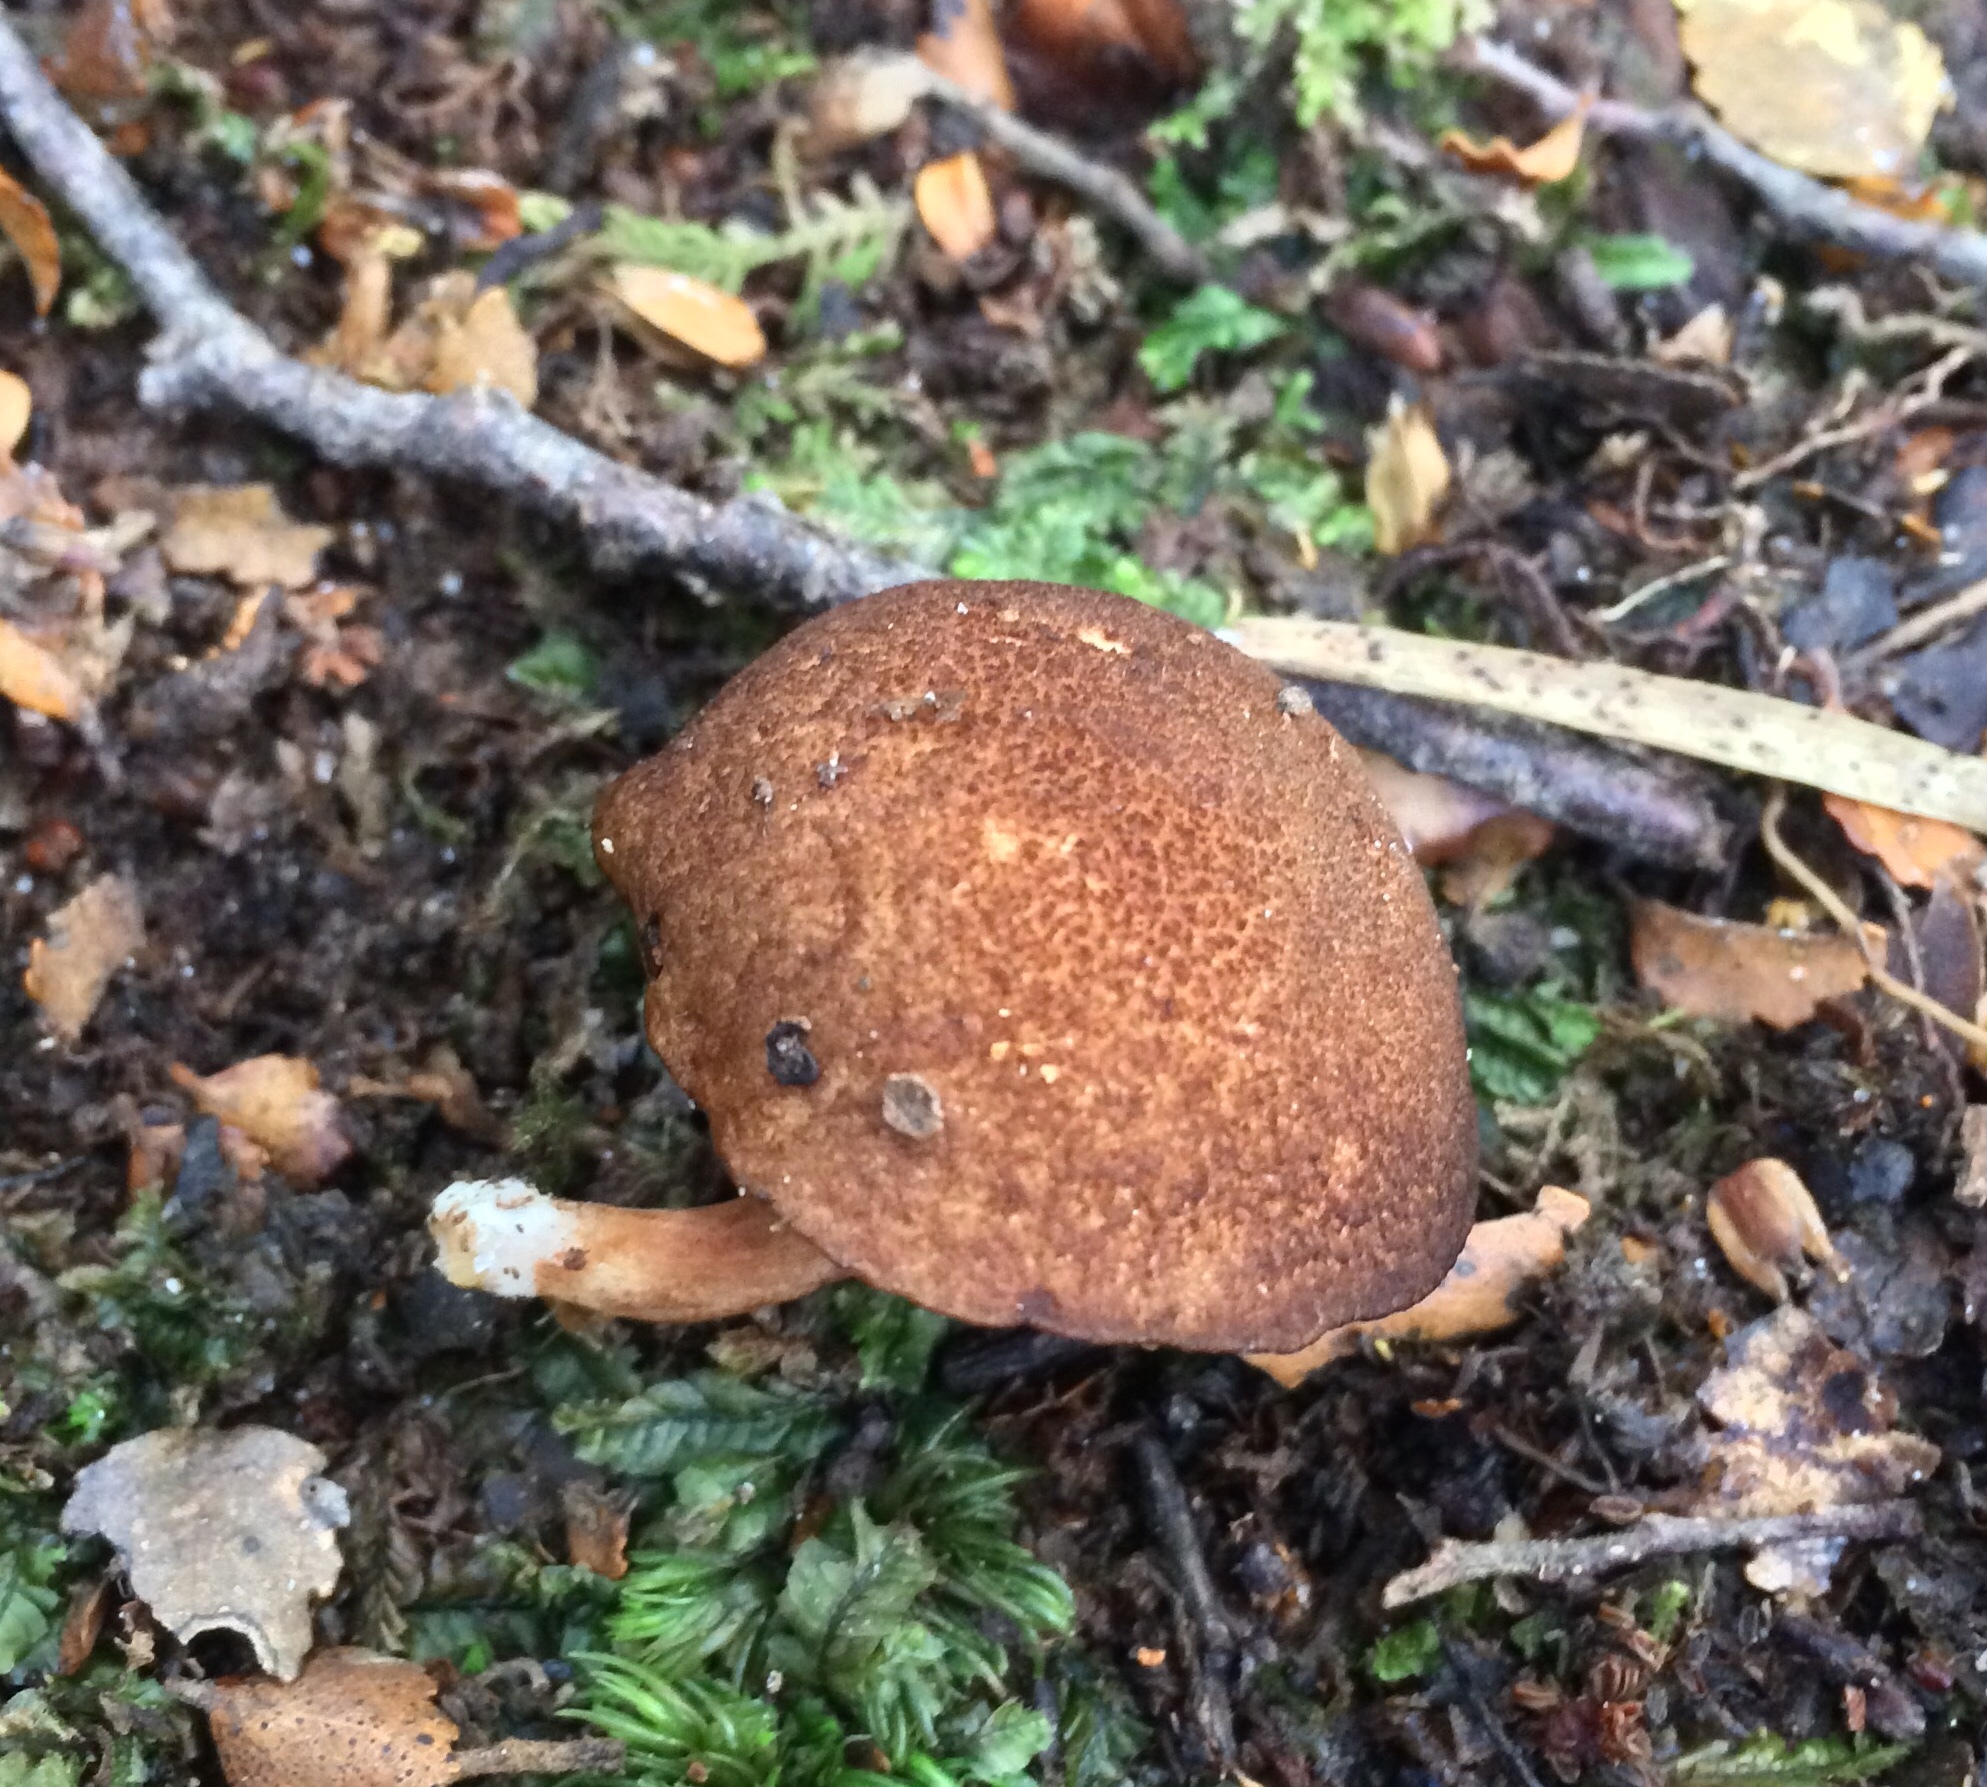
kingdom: Fungi
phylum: Basidiomycota
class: Agaricomycetes
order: Boletales
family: Boletaceae
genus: Xerocomus
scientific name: Xerocomus squamulosus
